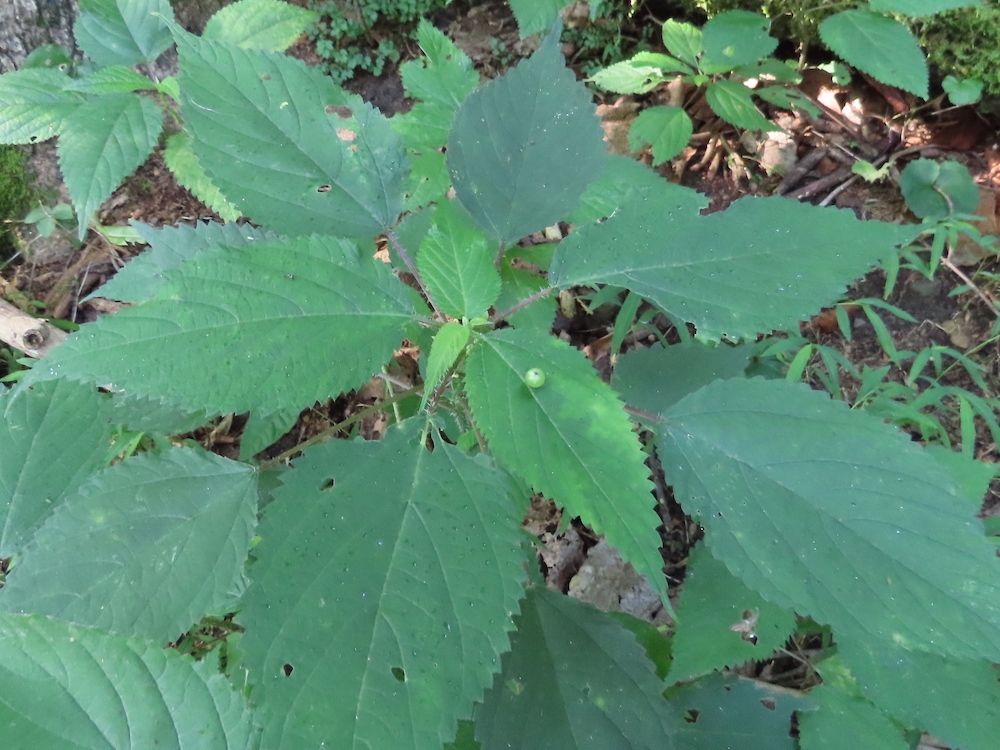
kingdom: Animalia
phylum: Arthropoda
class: Insecta
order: Diptera
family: Cecidomyiidae
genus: Dasineura
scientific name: Dasineura investita
